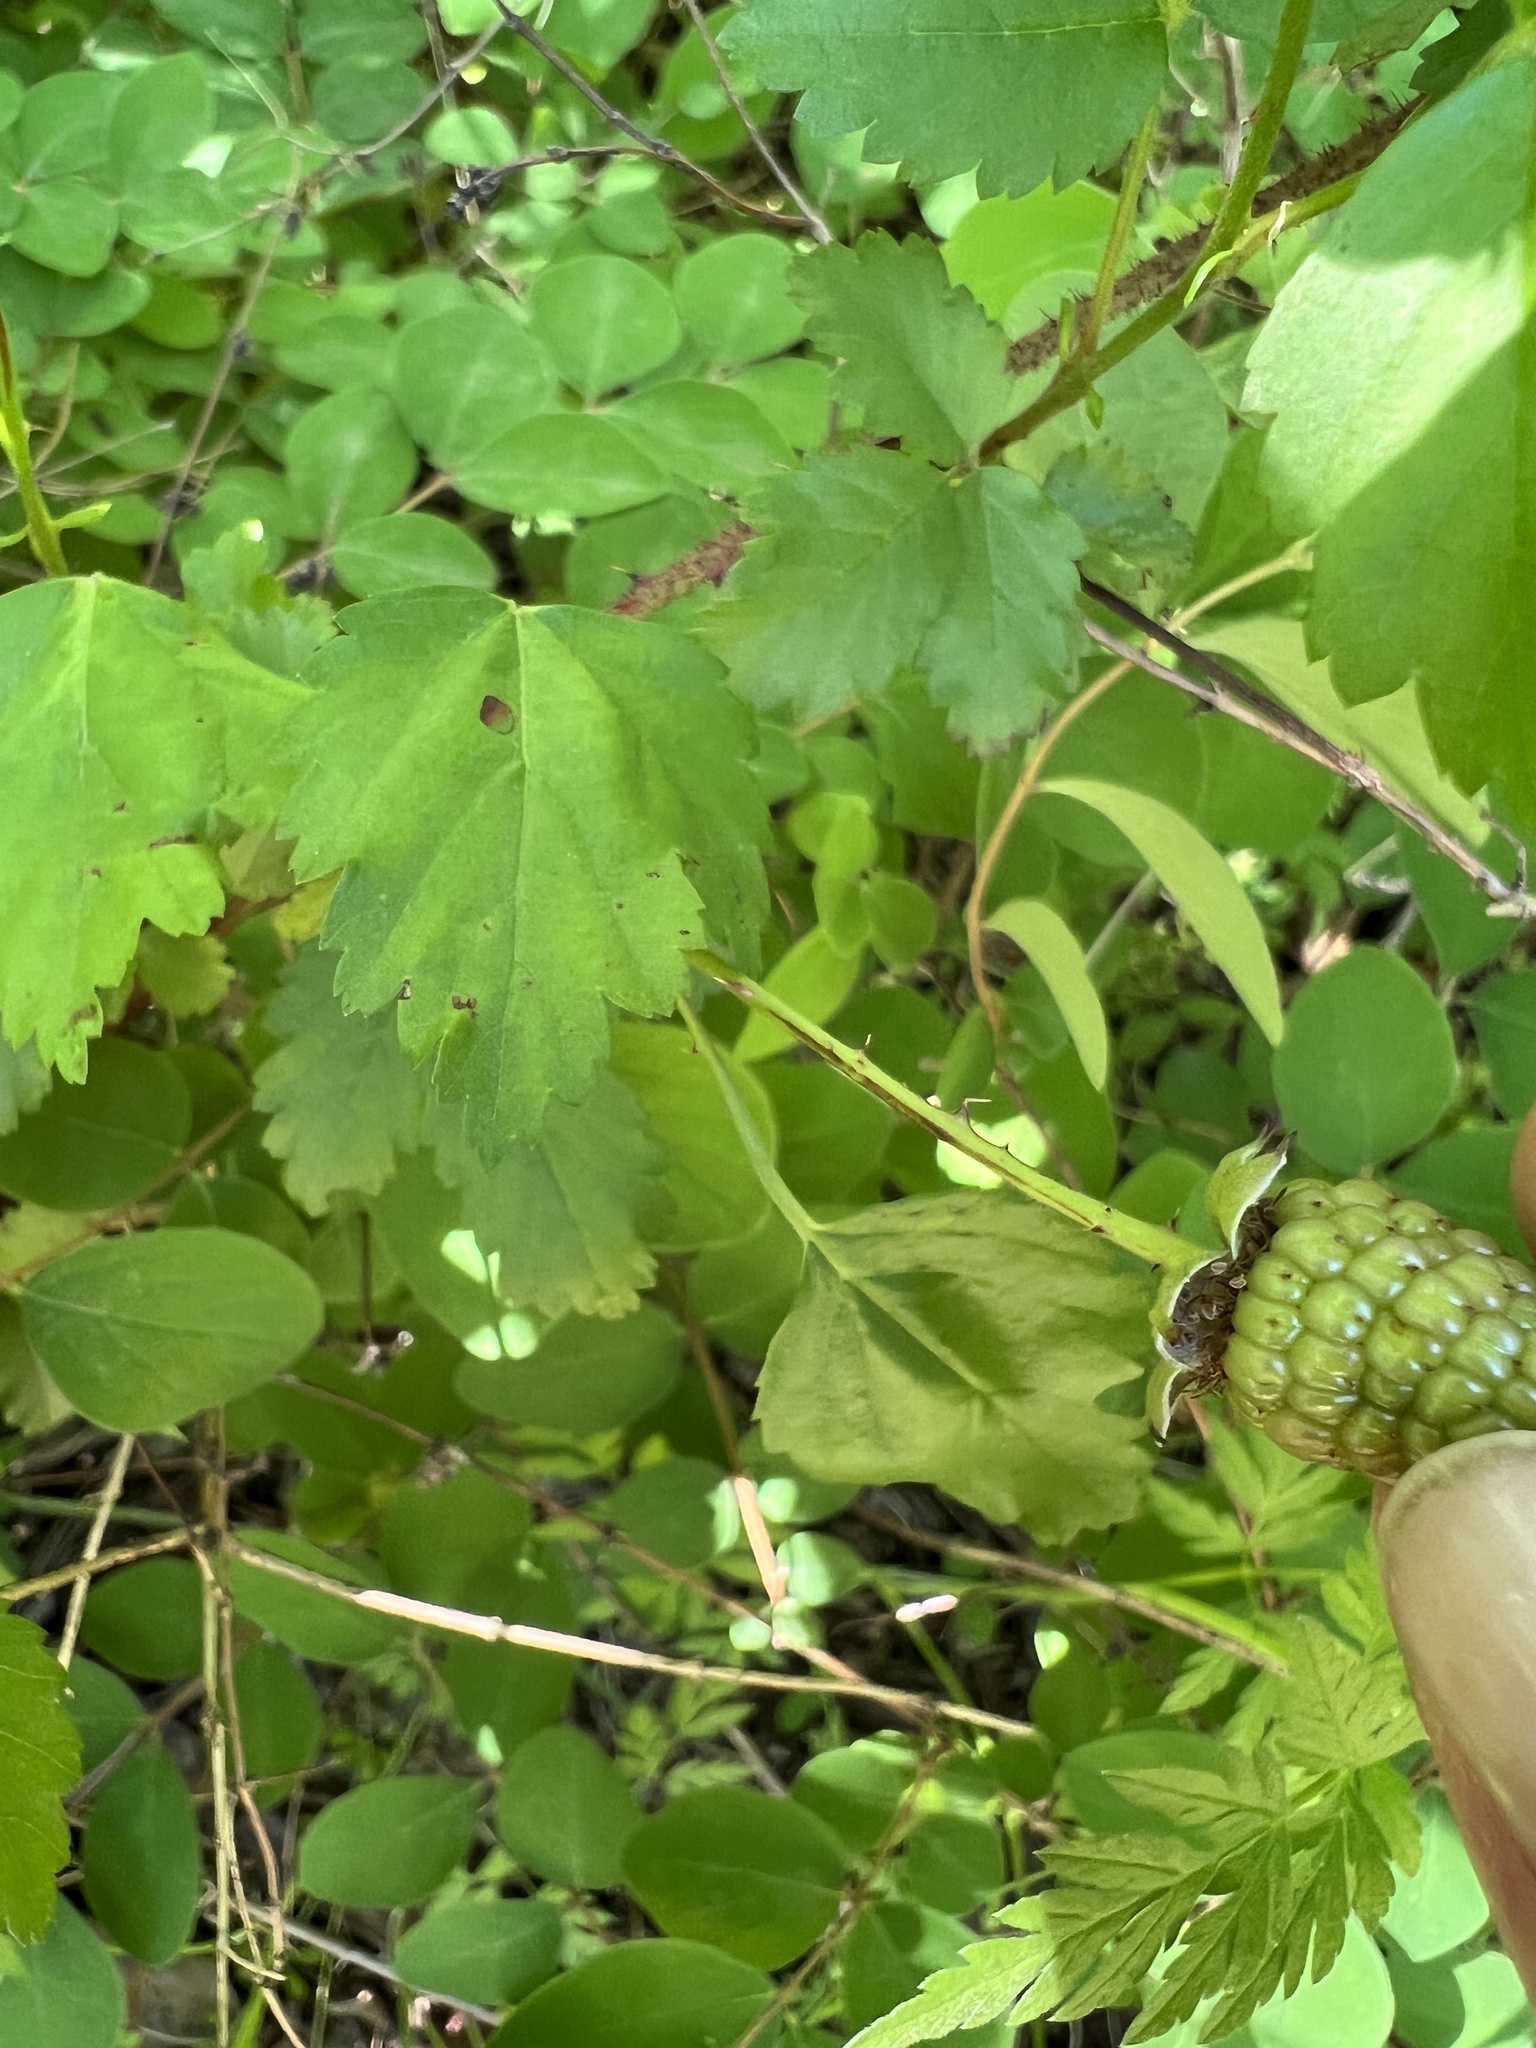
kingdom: Plantae
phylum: Tracheophyta
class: Magnoliopsida
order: Rosales
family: Rosaceae
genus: Rubus
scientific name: Rubus trivialis
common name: Southern dewberry
